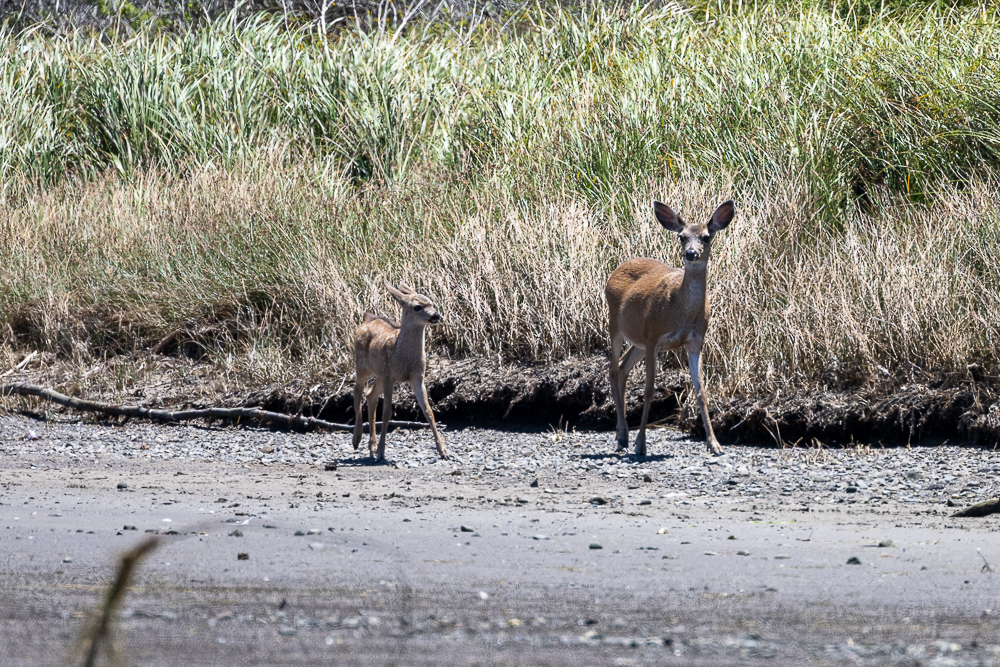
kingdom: Animalia
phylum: Chordata
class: Mammalia
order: Artiodactyla
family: Cervidae
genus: Odocoileus
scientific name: Odocoileus hemionus
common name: Mule deer
